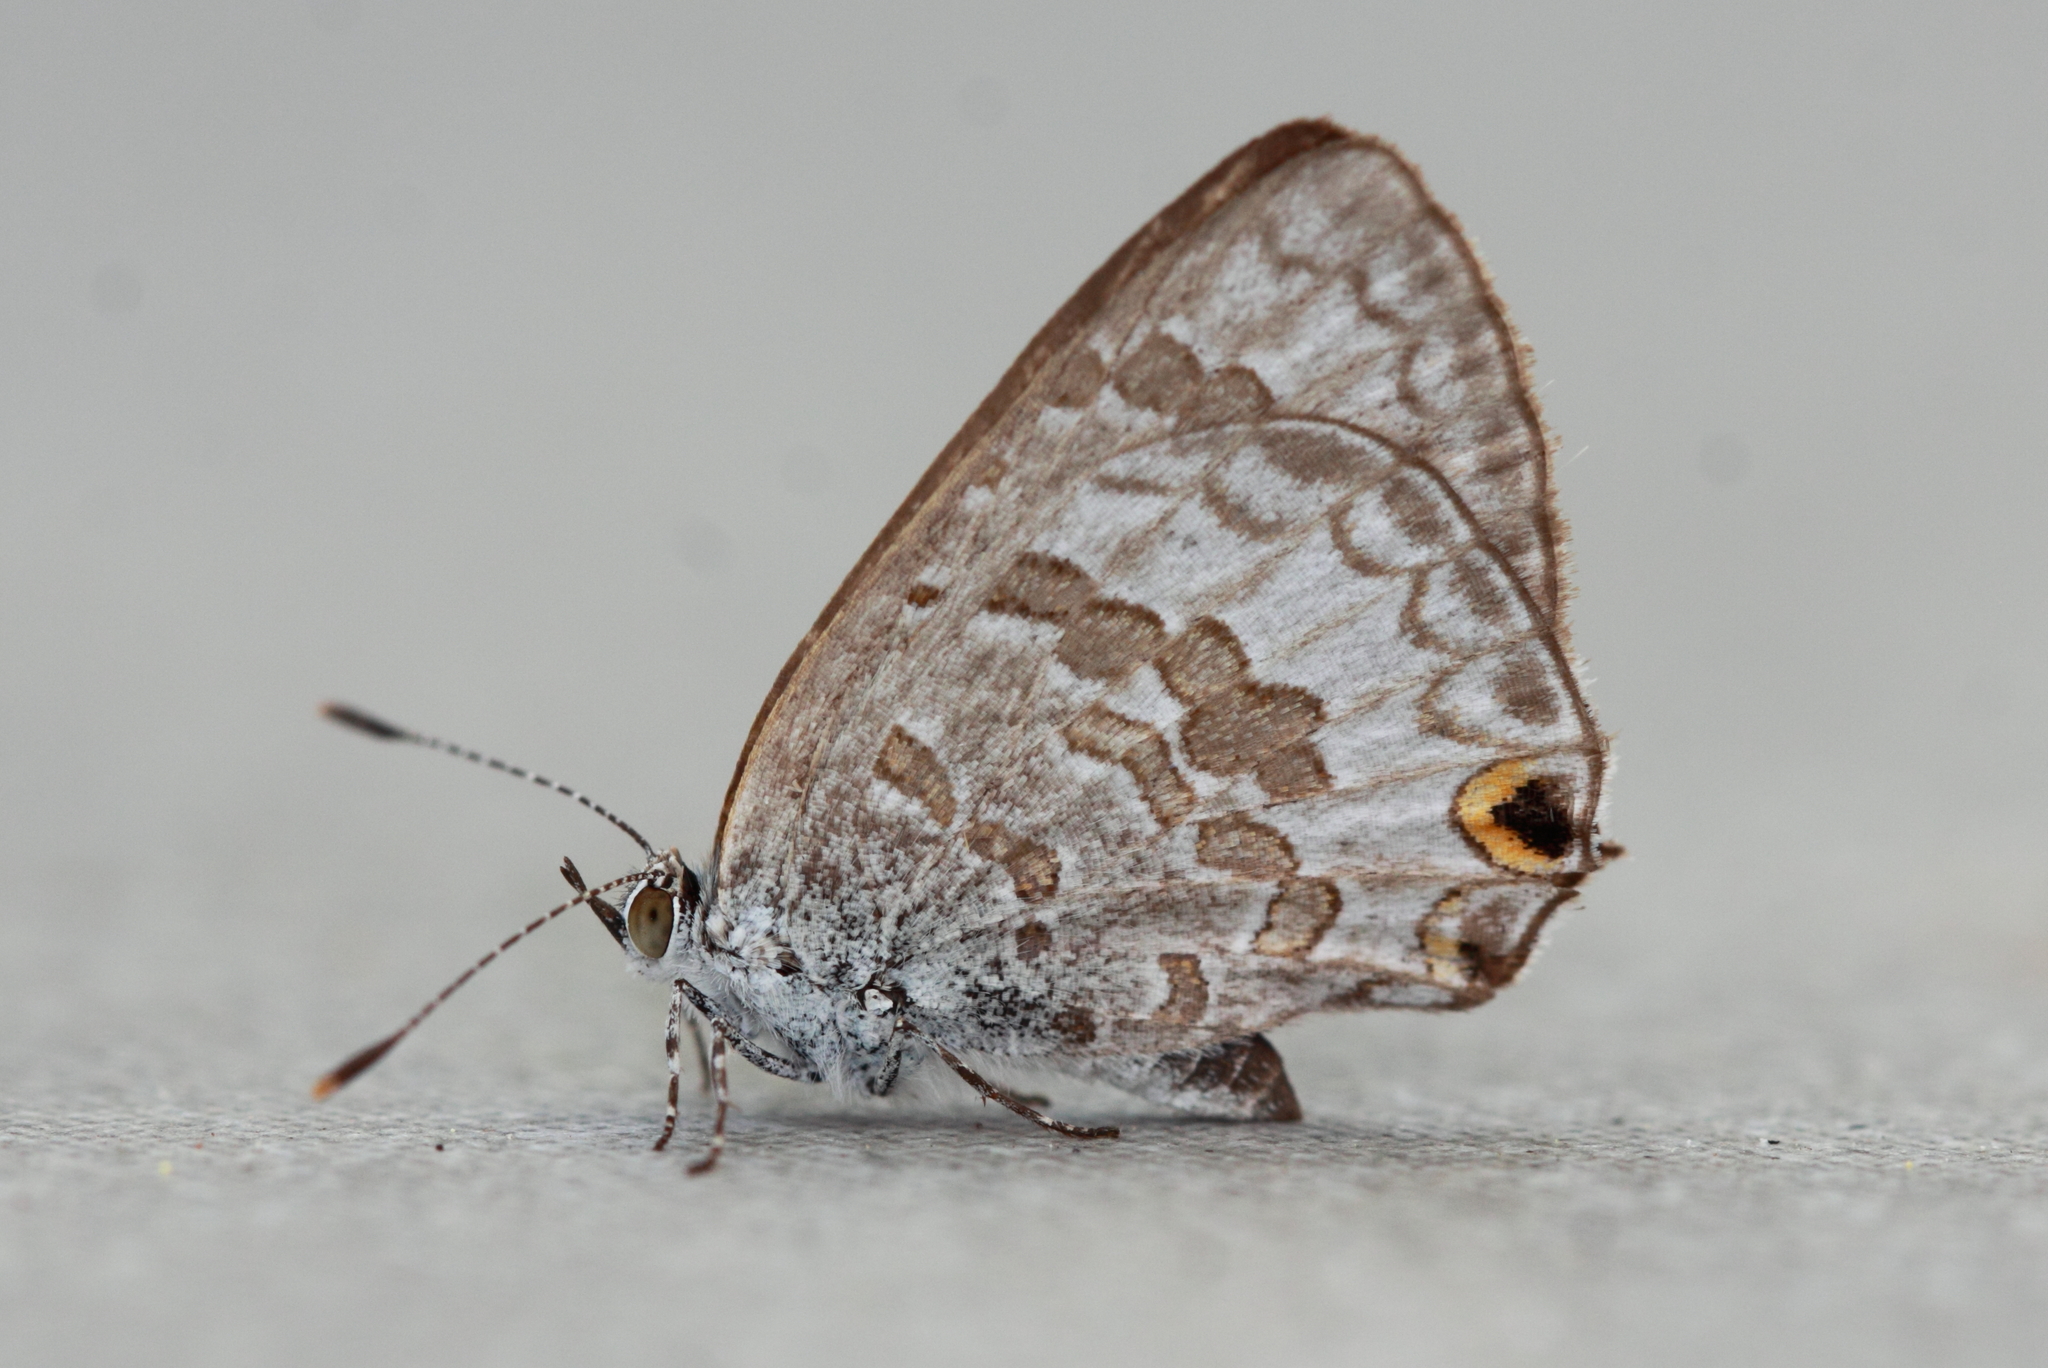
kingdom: Animalia
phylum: Arthropoda
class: Insecta
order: Lepidoptera
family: Lycaenidae
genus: Catopyrops
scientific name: Catopyrops florinda
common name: Speckled line-blue
